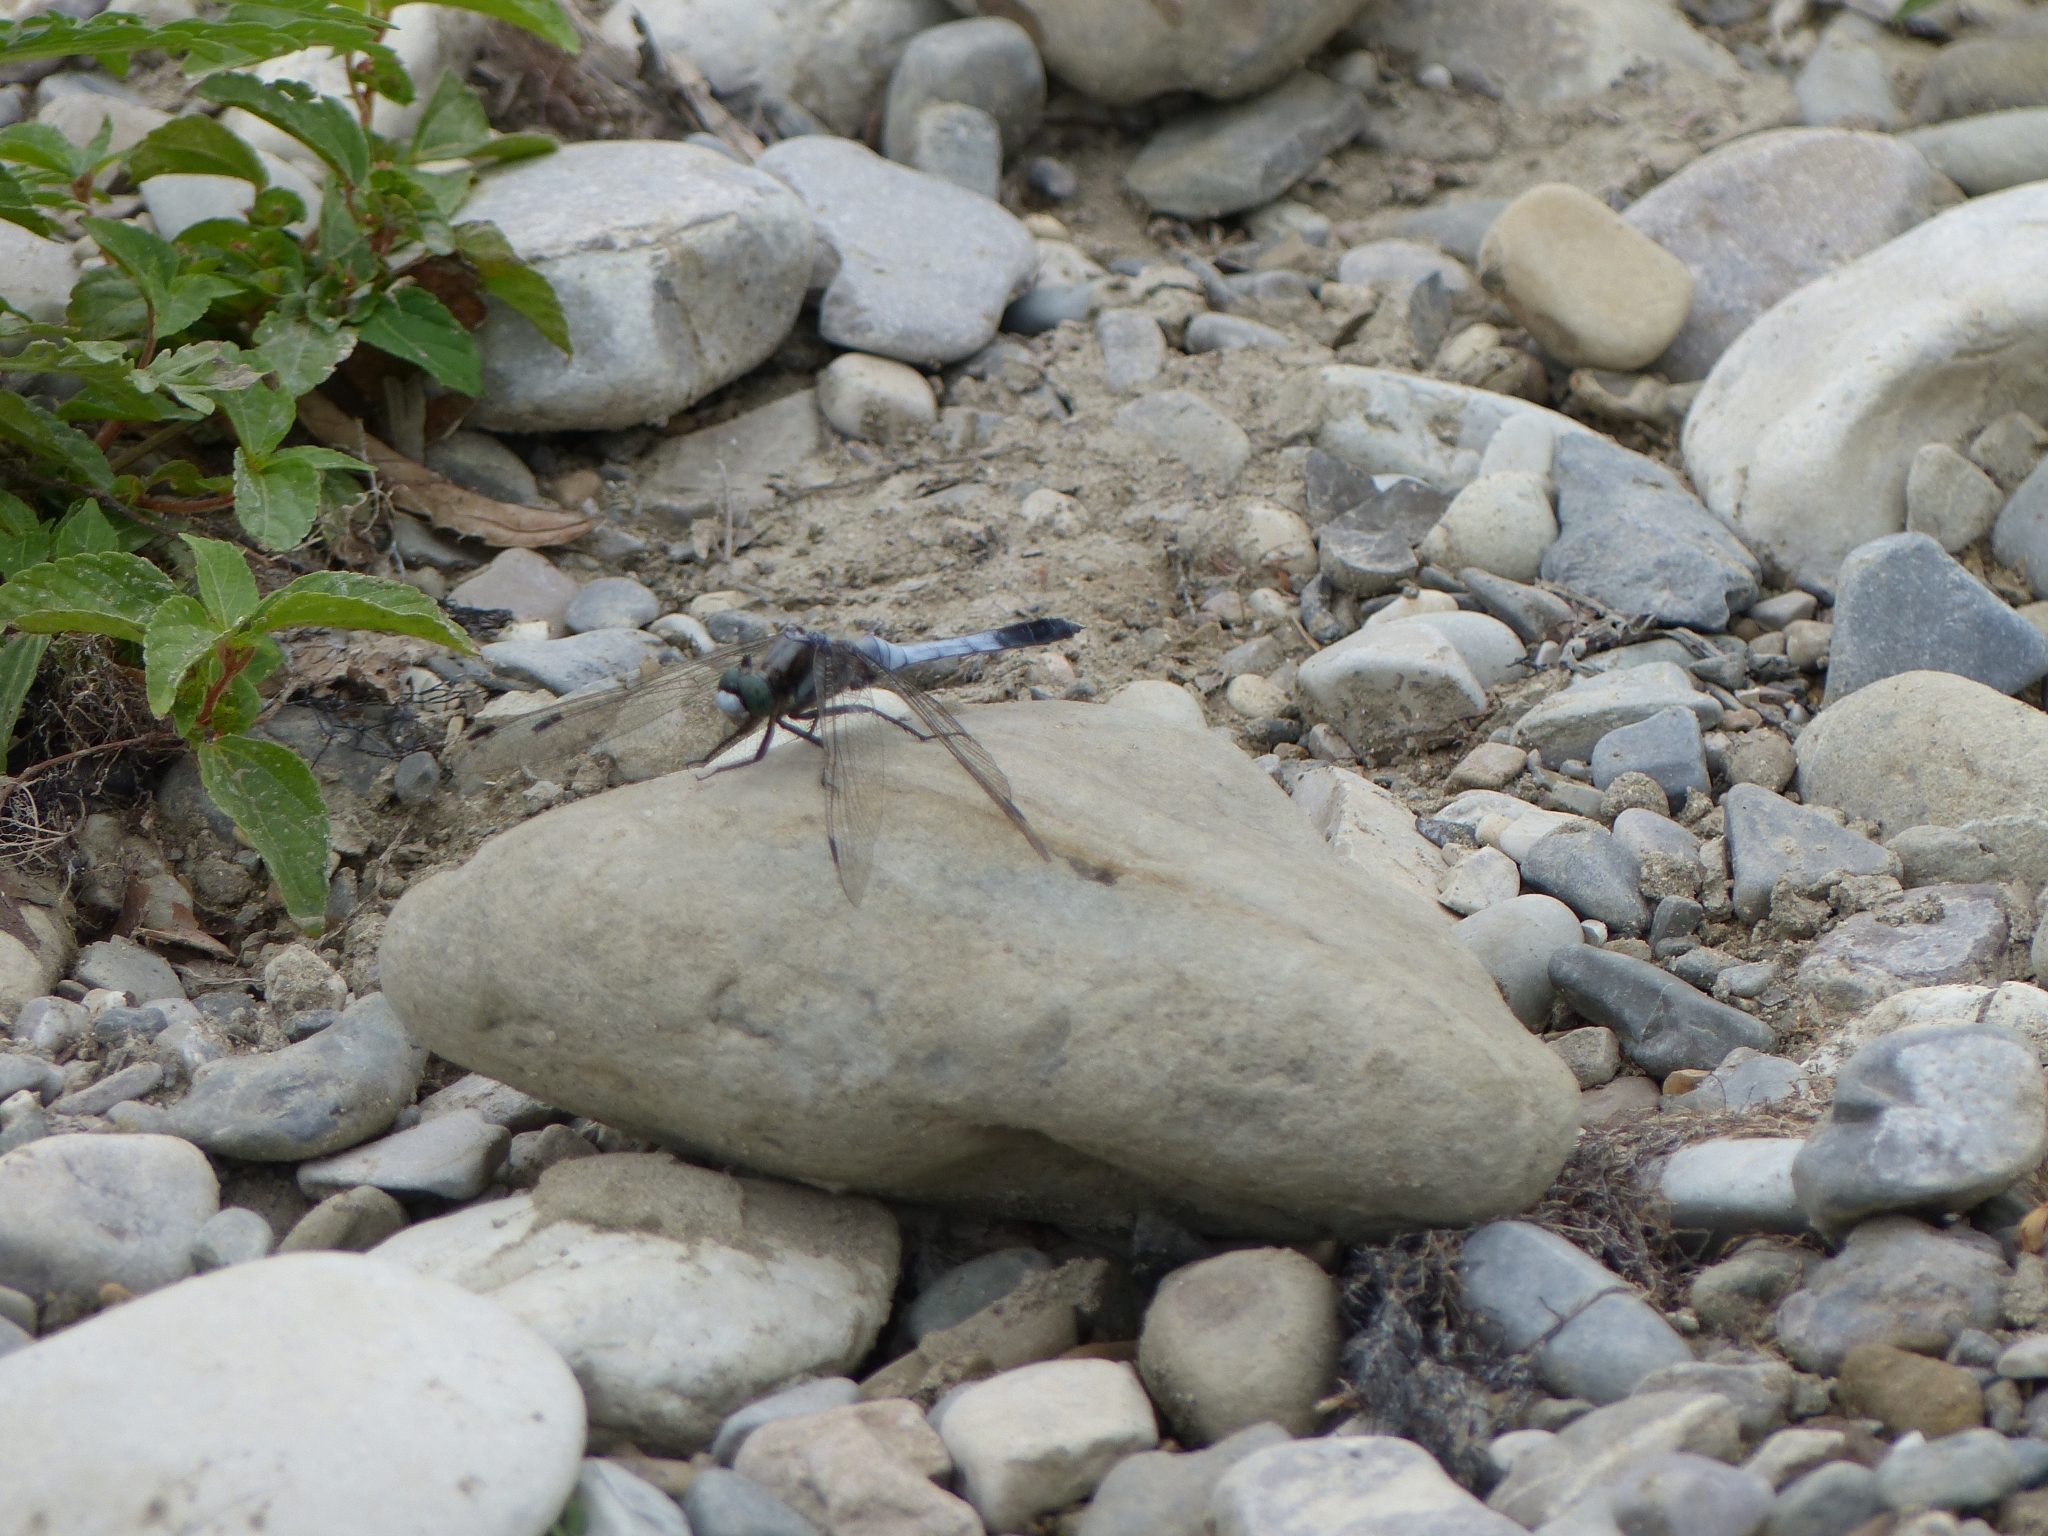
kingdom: Animalia
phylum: Arthropoda
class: Insecta
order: Odonata
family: Libellulidae
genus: Orthetrum
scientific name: Orthetrum albistylum
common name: White-tailed skimmer
